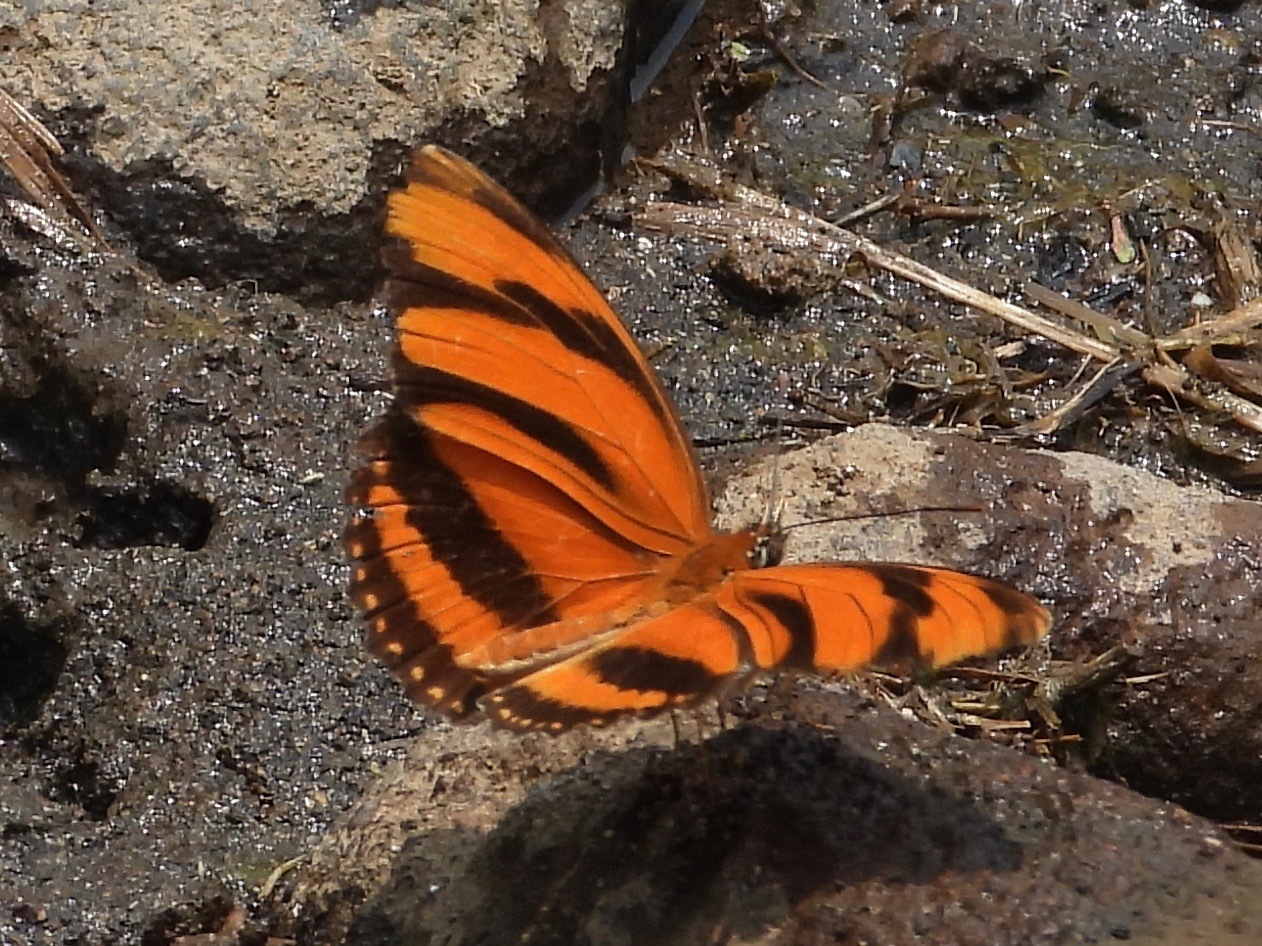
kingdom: Animalia
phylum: Arthropoda
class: Insecta
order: Lepidoptera
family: Nymphalidae
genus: Dryadula
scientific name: Dryadula phaetusa
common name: Banded orange heliconian
